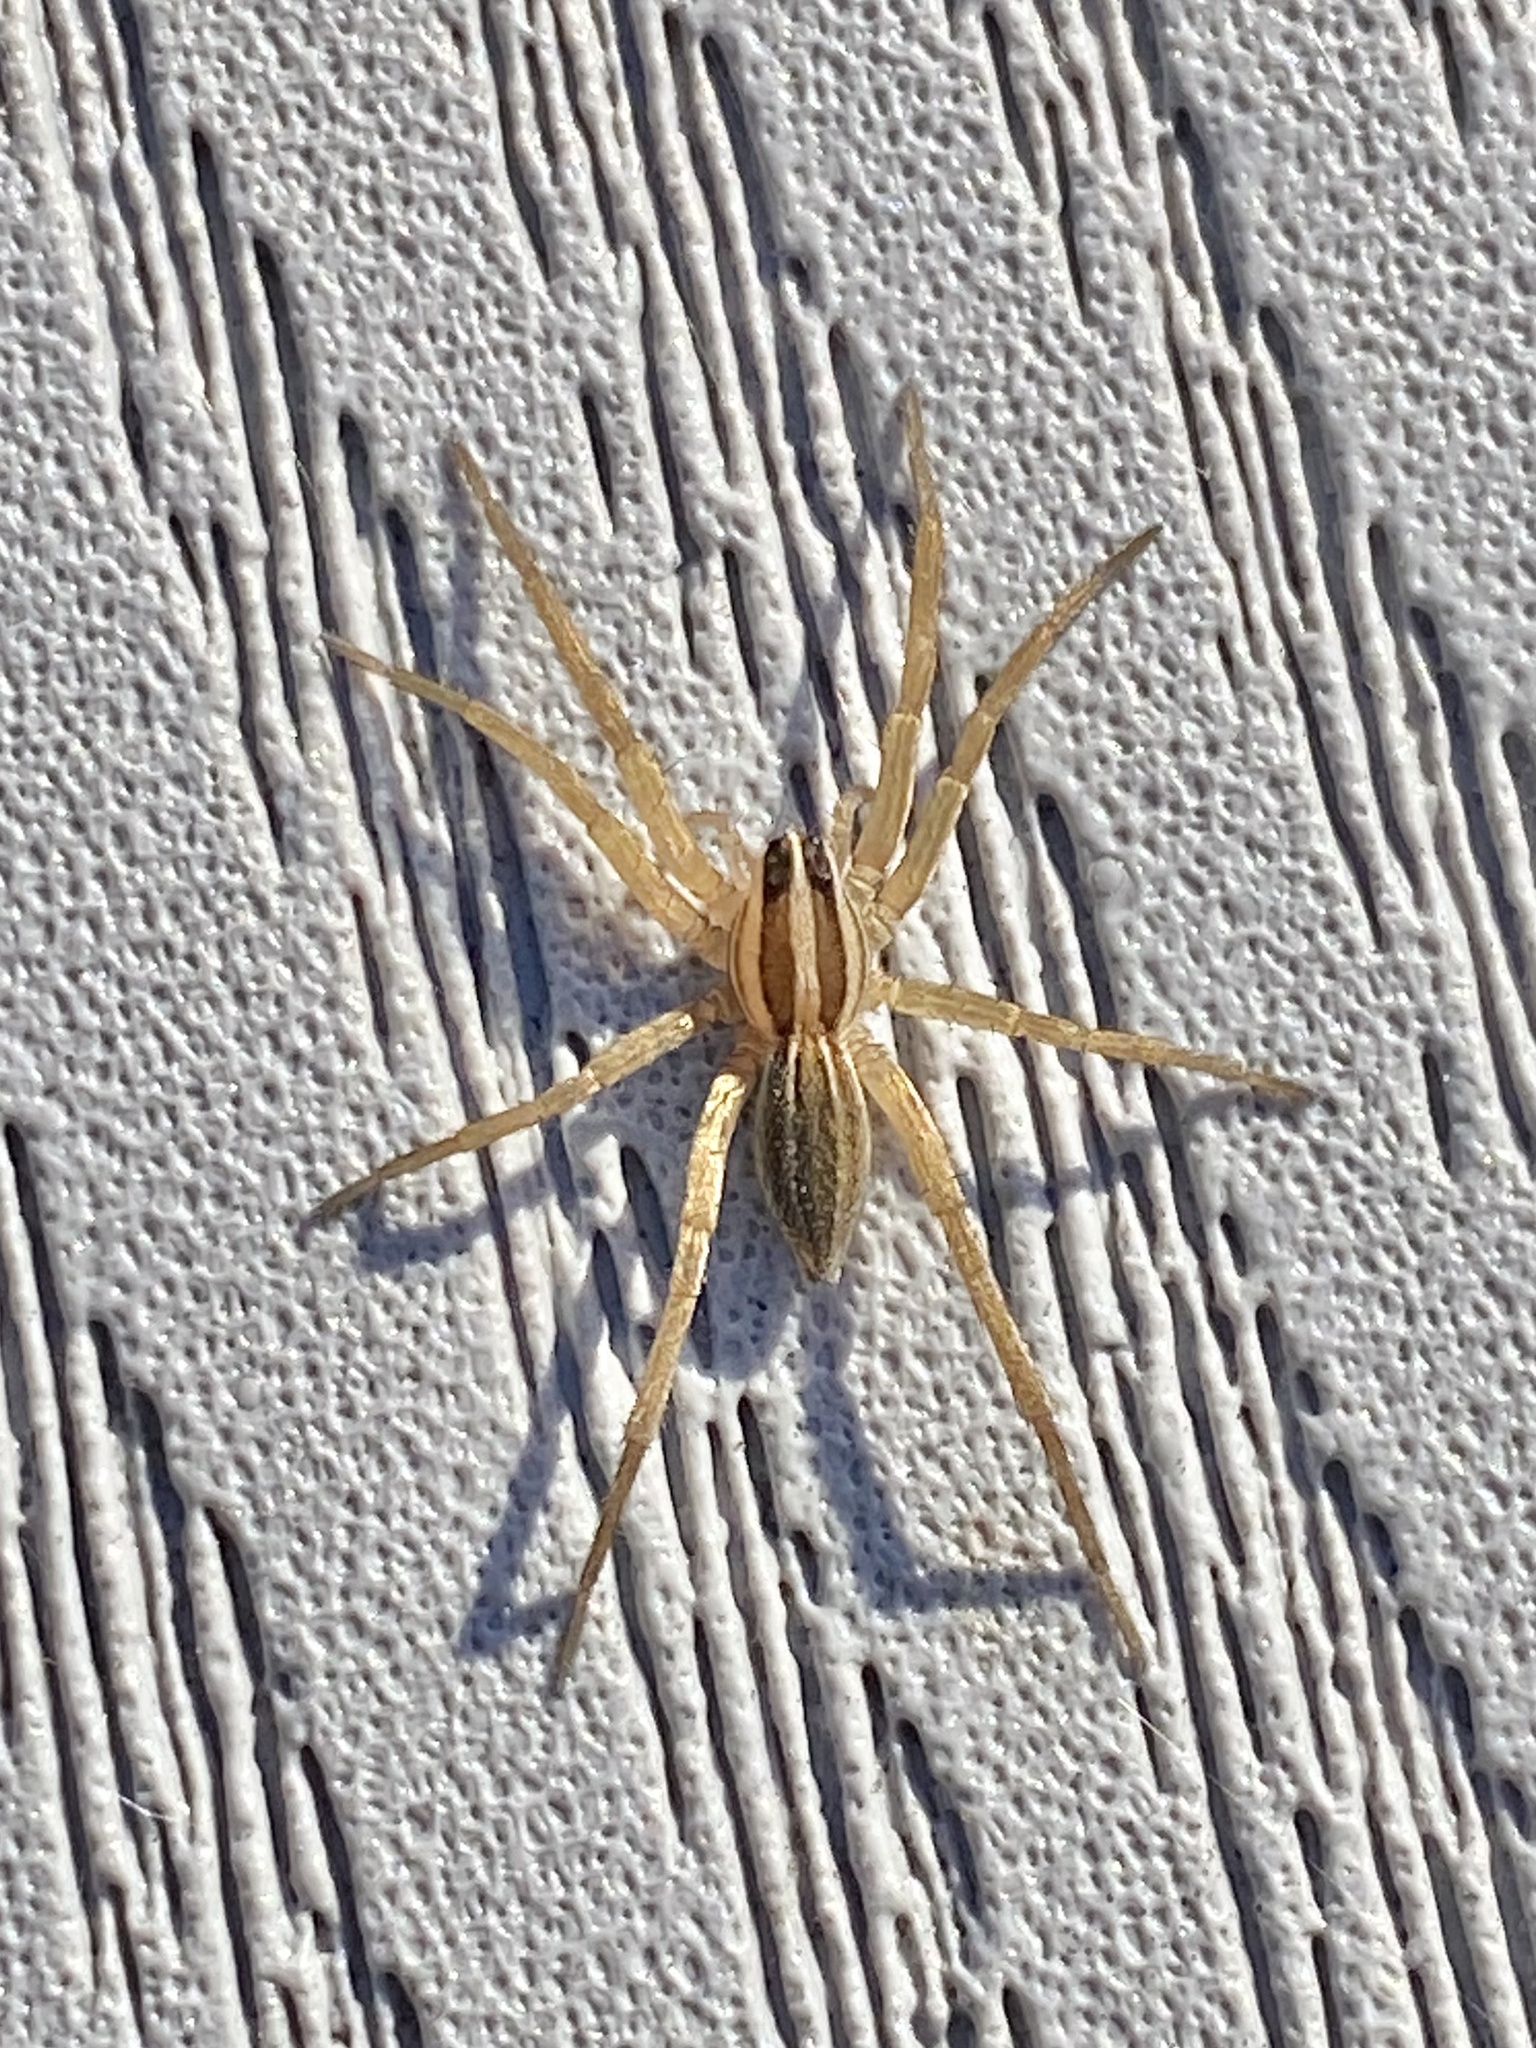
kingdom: Animalia
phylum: Arthropoda
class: Arachnida
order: Araneae
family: Lycosidae
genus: Rabidosa
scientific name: Rabidosa rabida
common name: Rabid wolf spider
